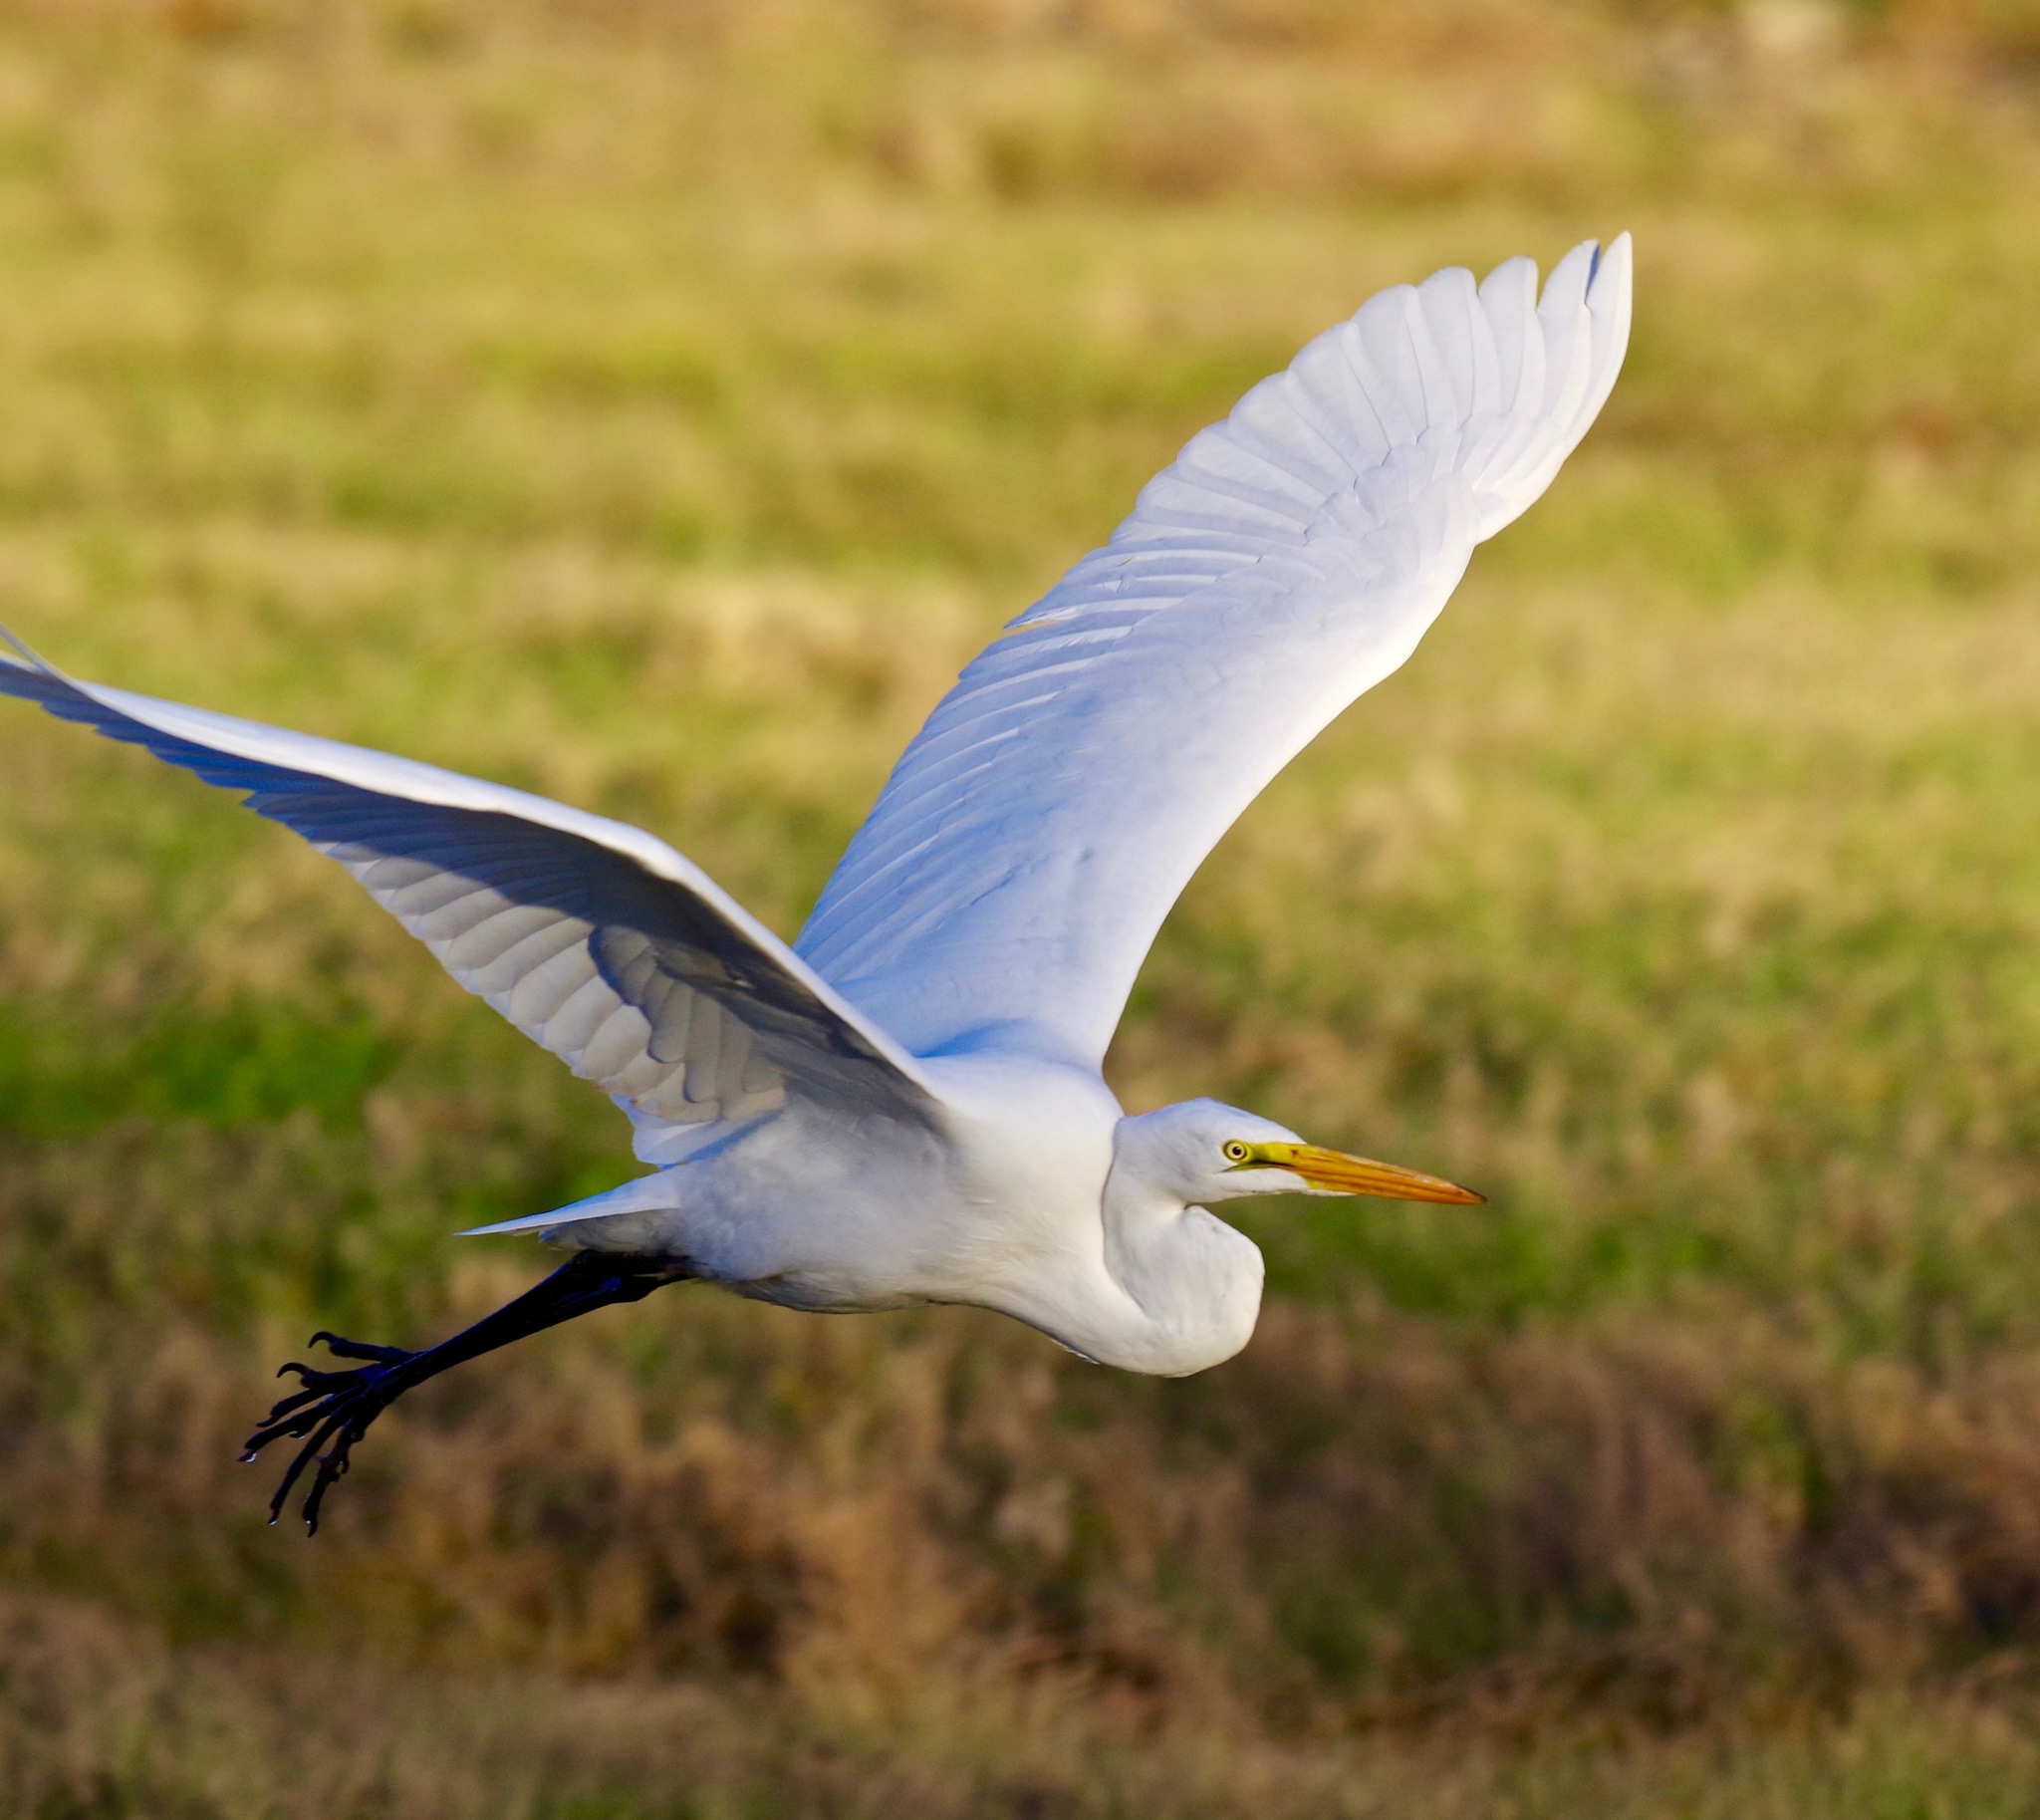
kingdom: Animalia
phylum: Chordata
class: Aves
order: Pelecaniformes
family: Ardeidae
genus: Ardea
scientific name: Ardea alba
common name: Great egret
